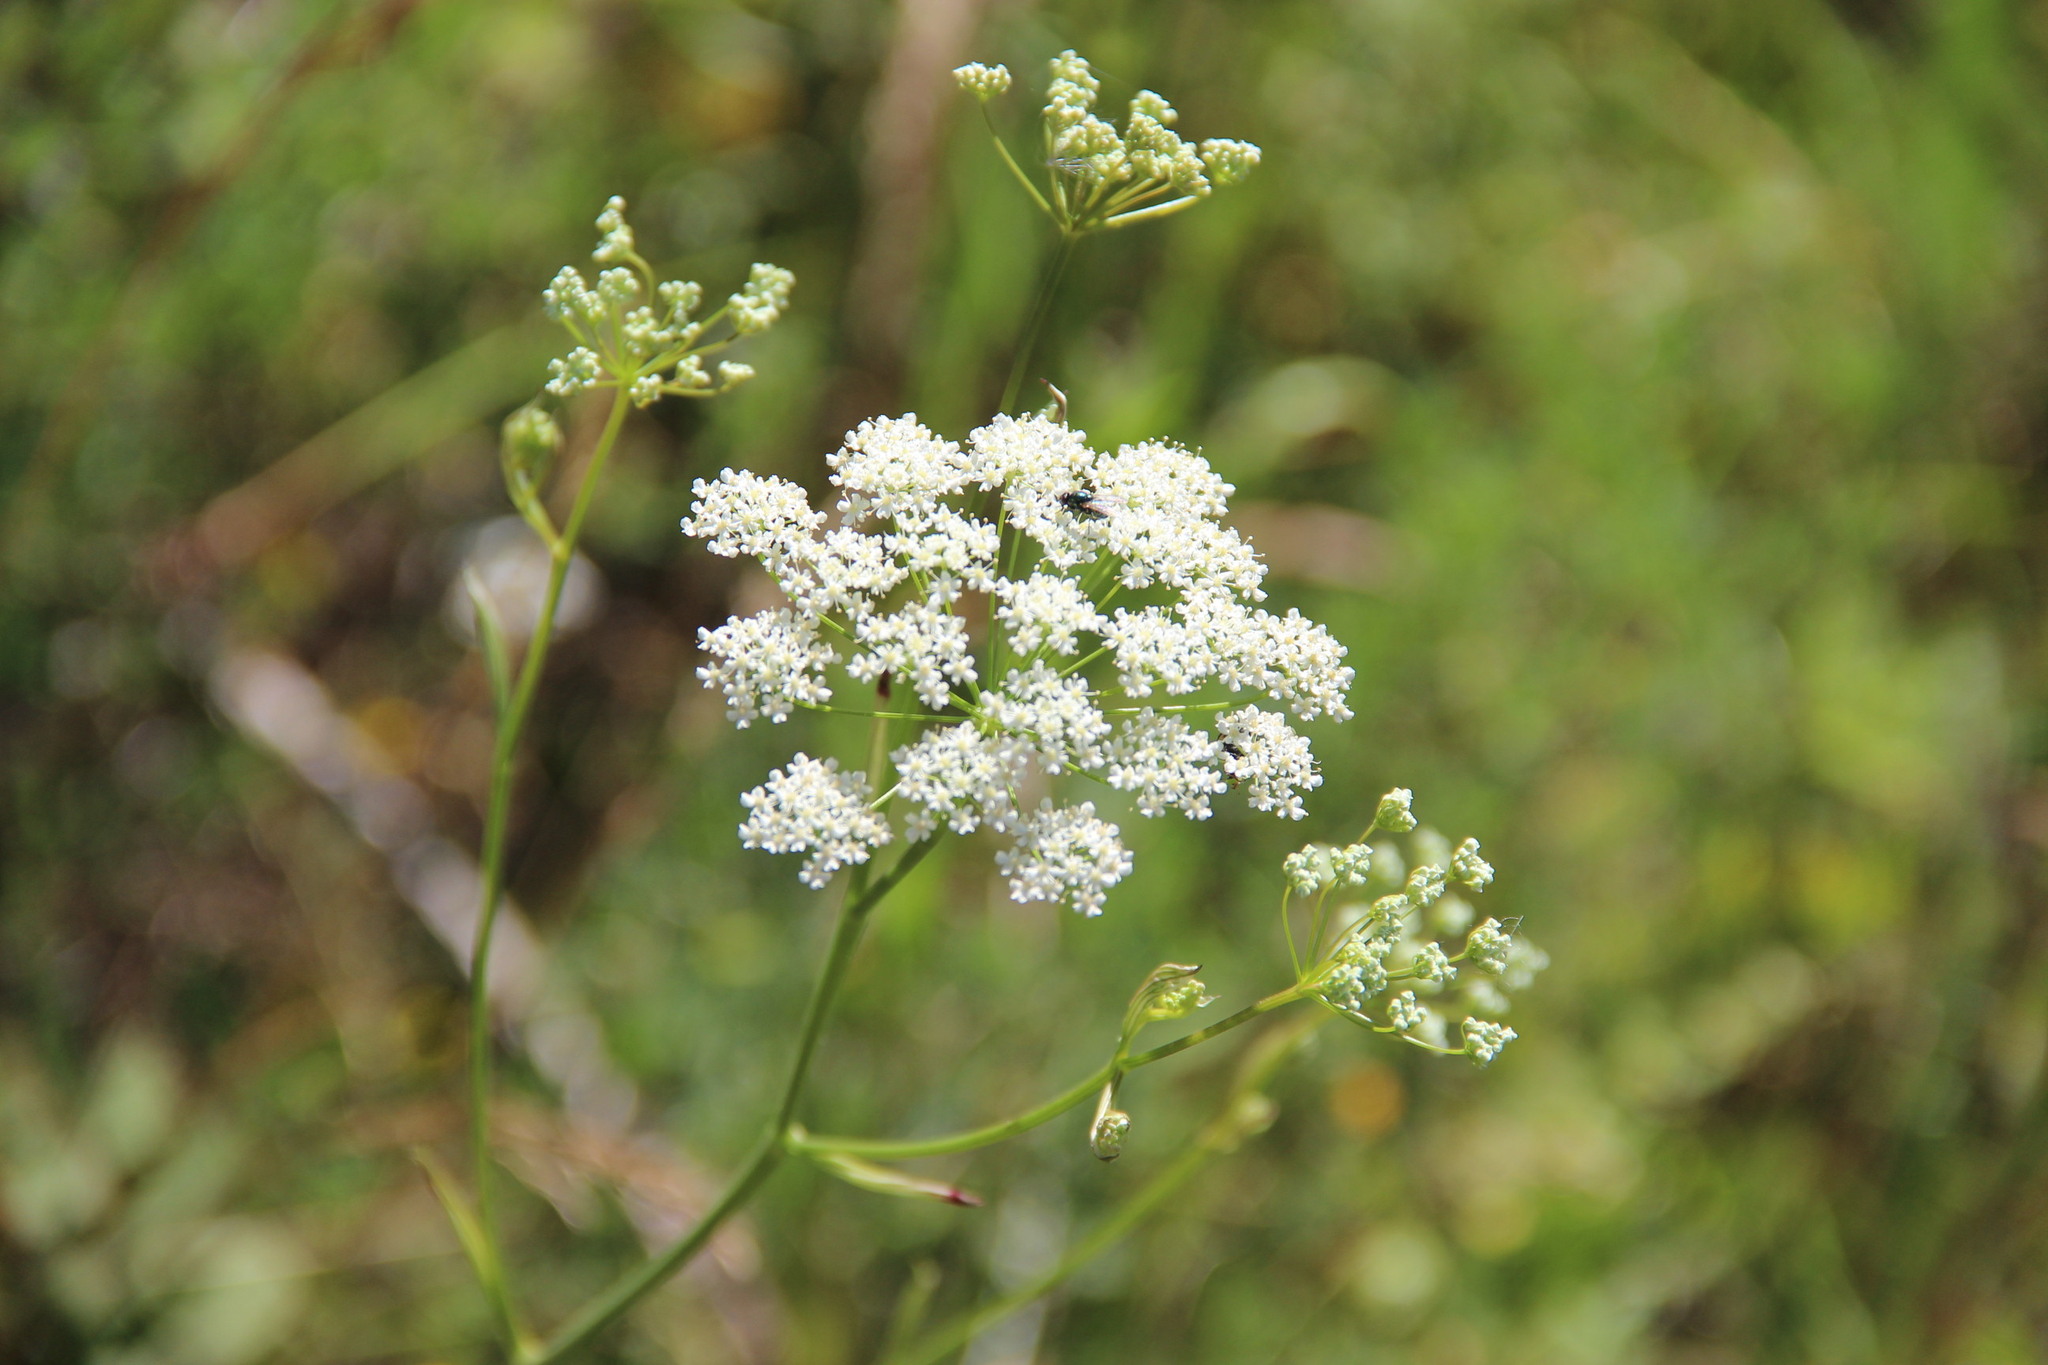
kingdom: Plantae
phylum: Tracheophyta
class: Magnoliopsida
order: Apiales
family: Apiaceae
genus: Pimpinella
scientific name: Pimpinella saxifraga
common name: Burnet-saxifrage
